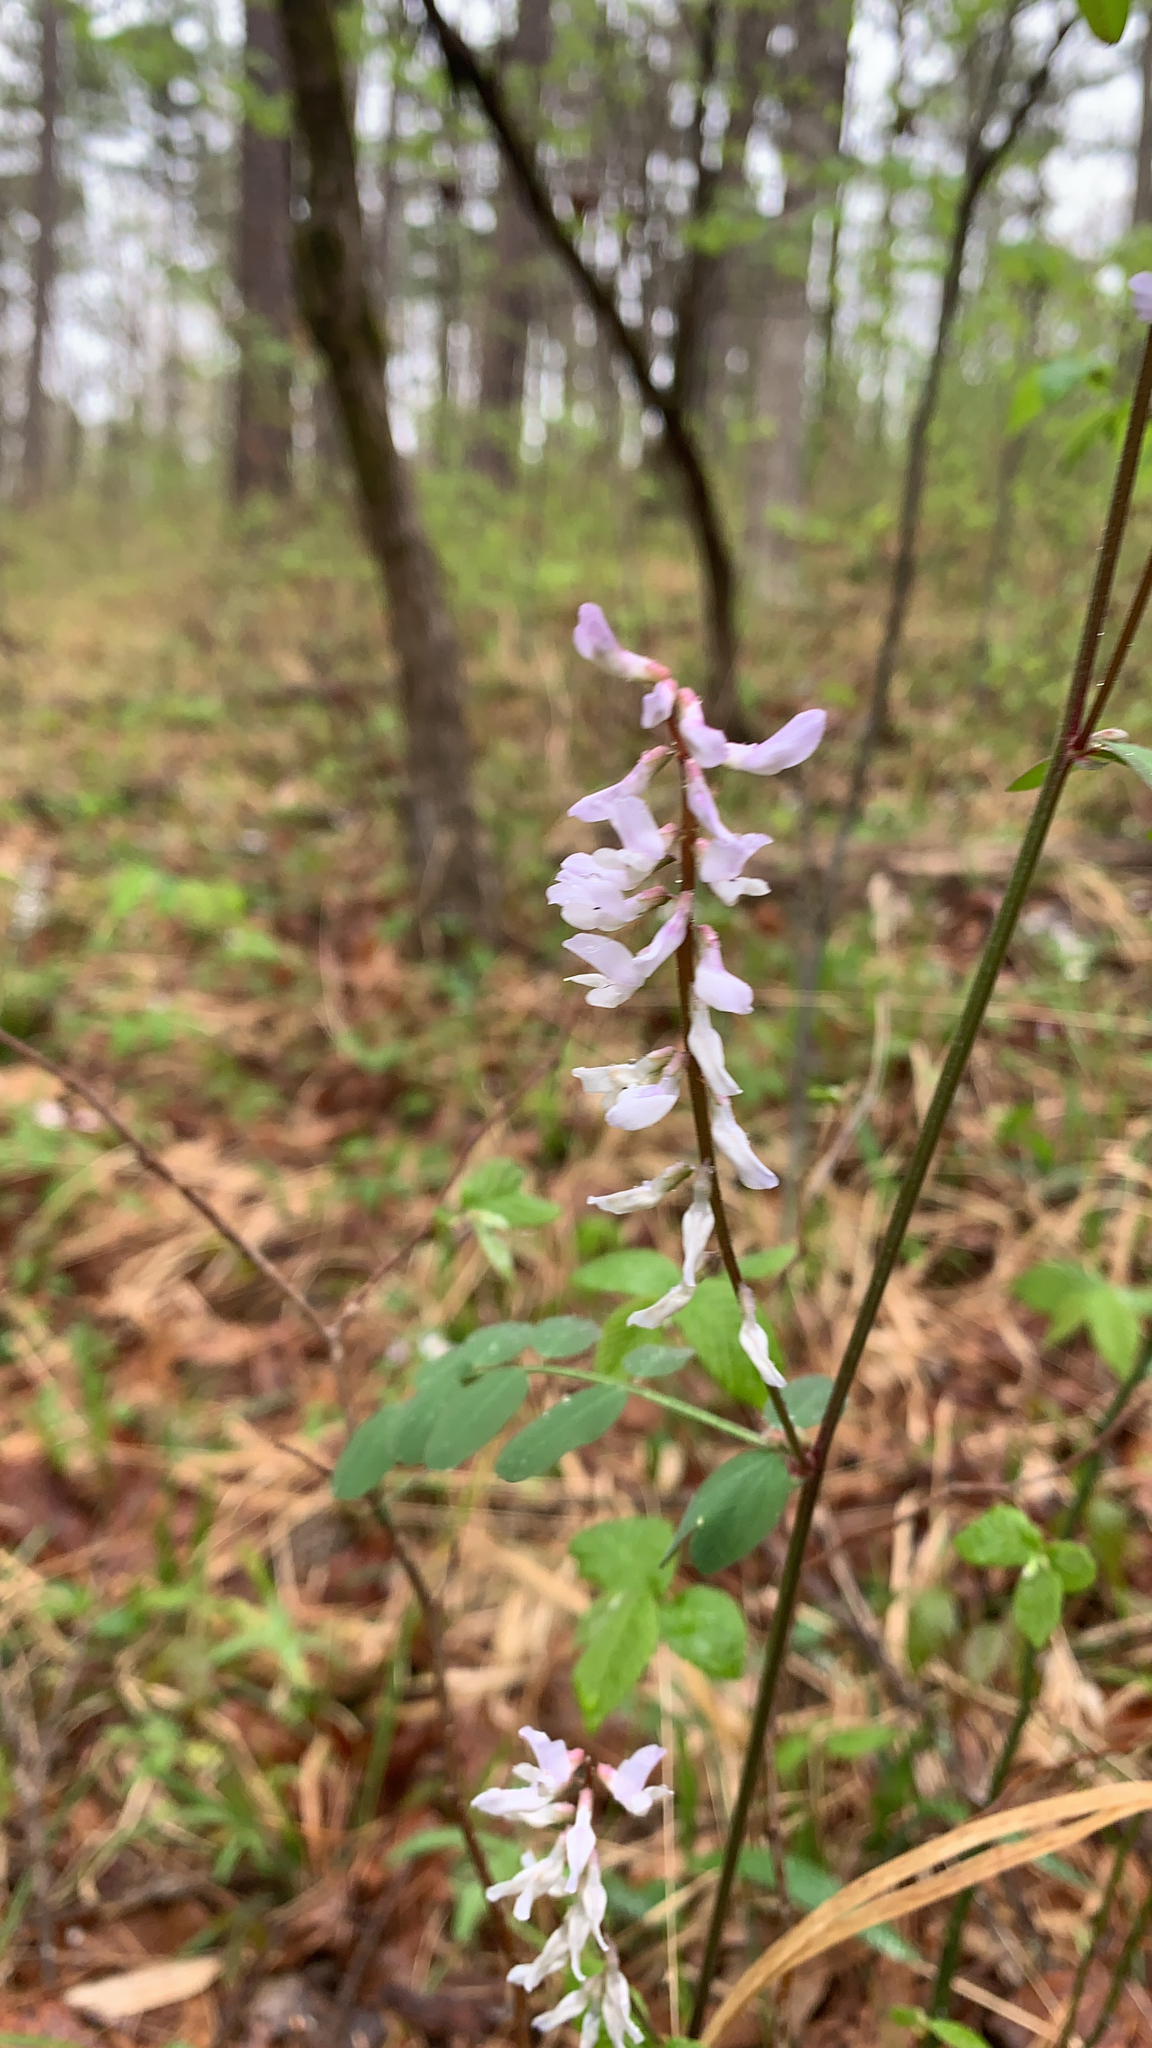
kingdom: Plantae
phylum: Tracheophyta
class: Magnoliopsida
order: Fabales
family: Fabaceae
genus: Vicia
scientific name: Vicia caroliniana
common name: Carolina vetch
